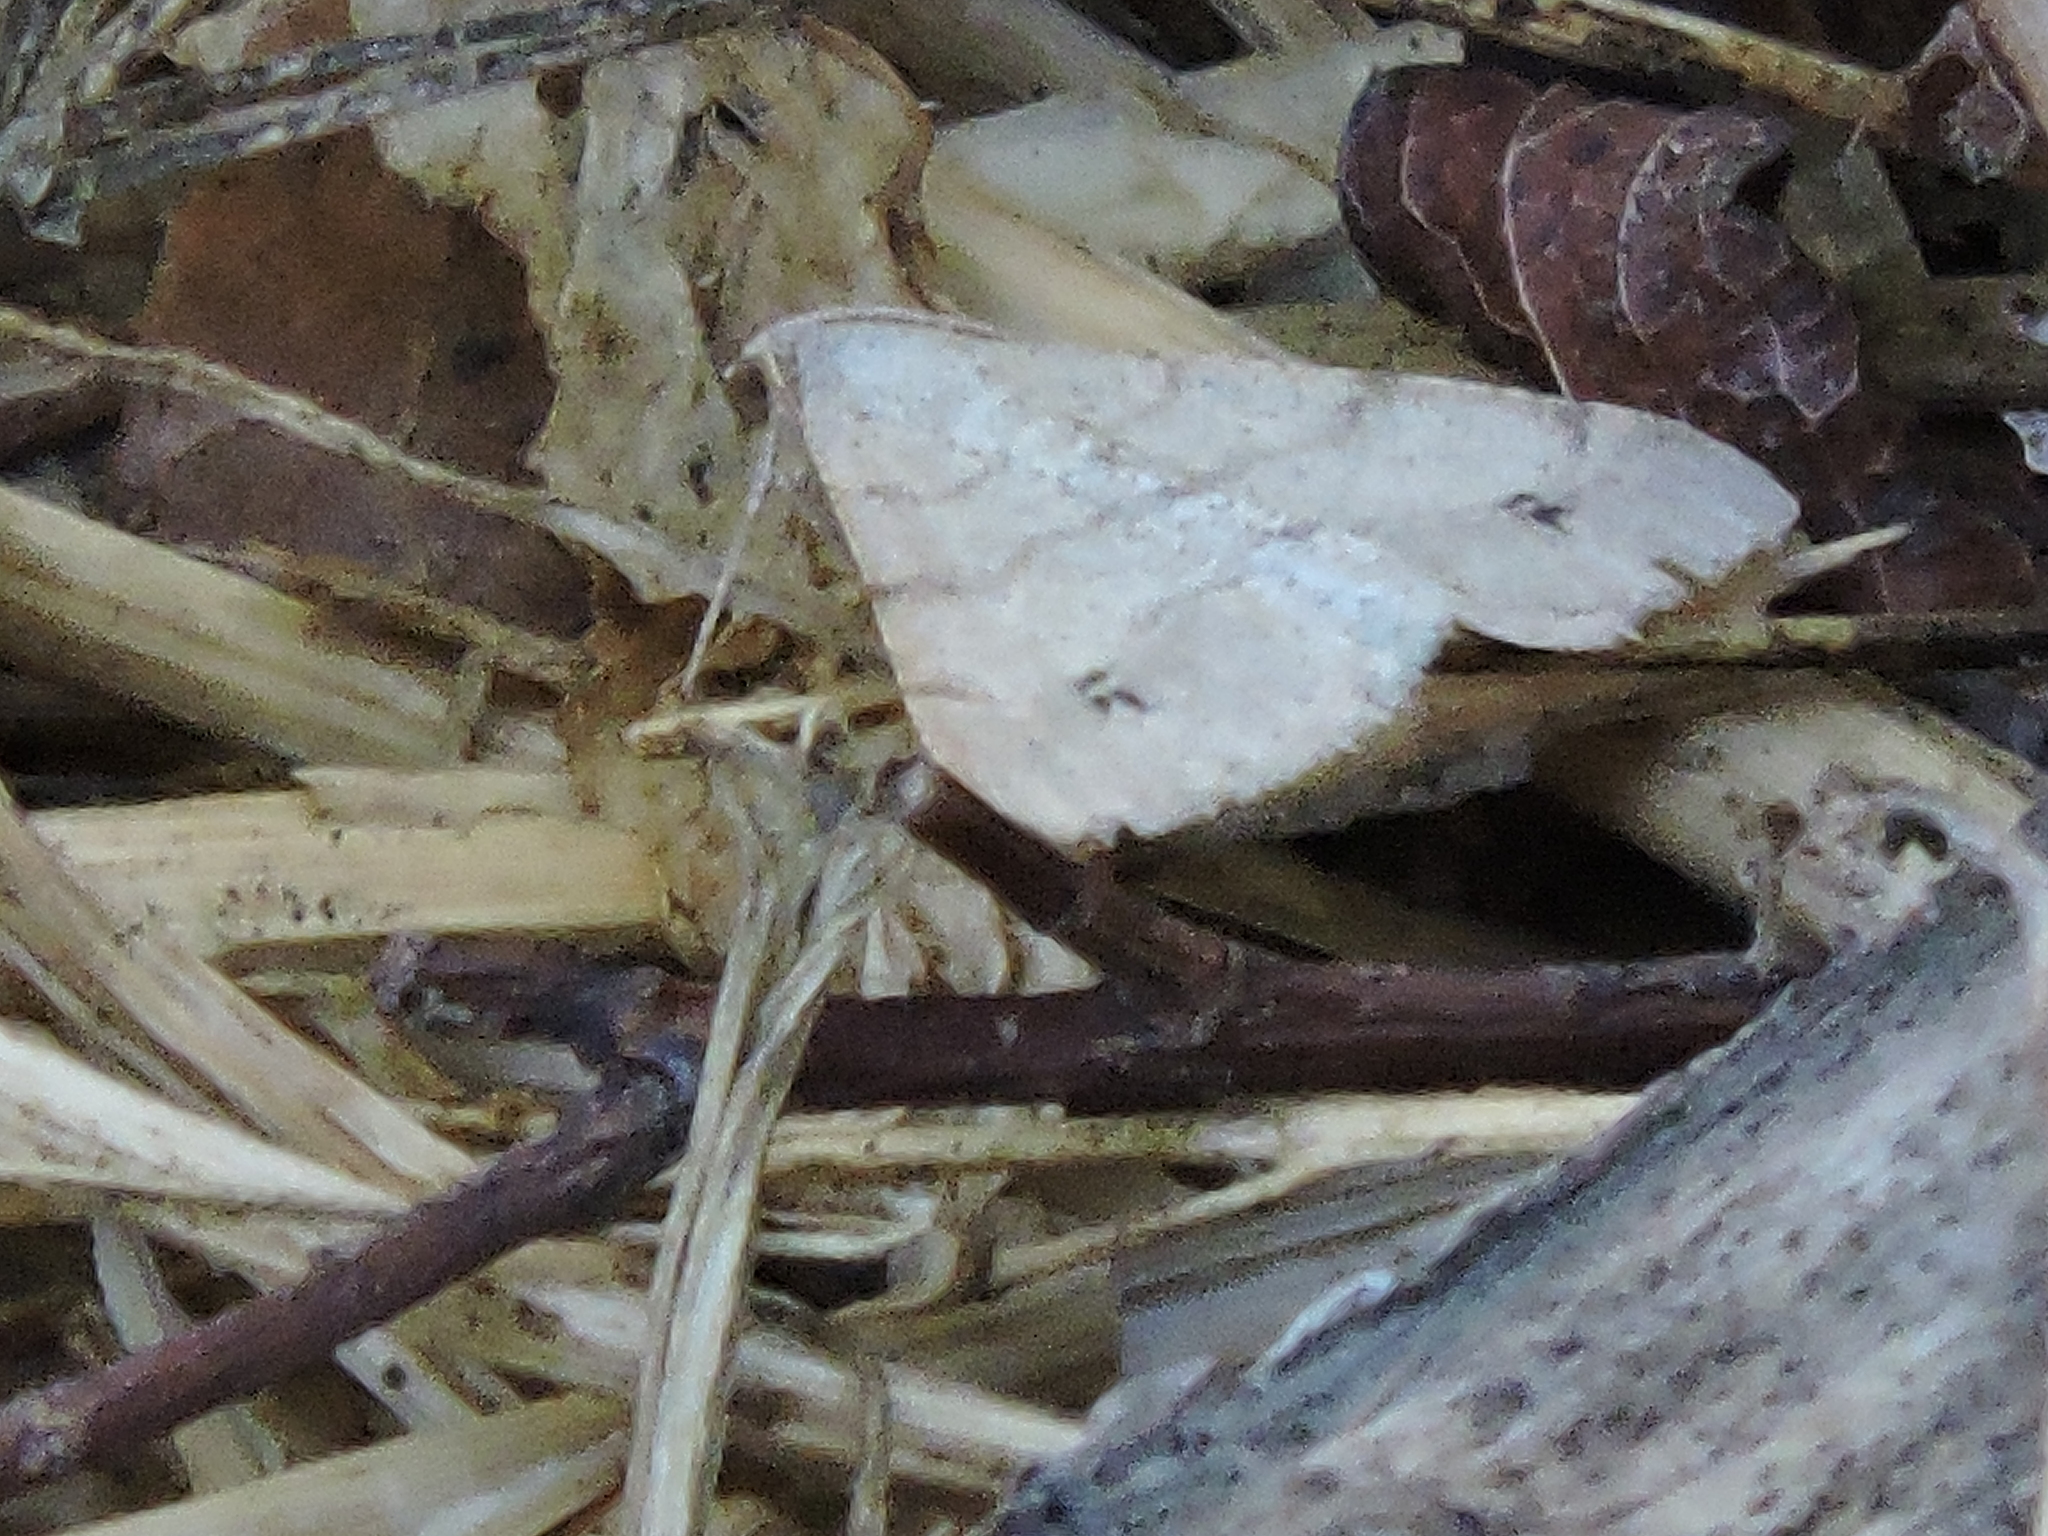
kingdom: Animalia
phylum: Arthropoda
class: Insecta
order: Lepidoptera
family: Geometridae
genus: Digrammia
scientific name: Digrammia muscariata
